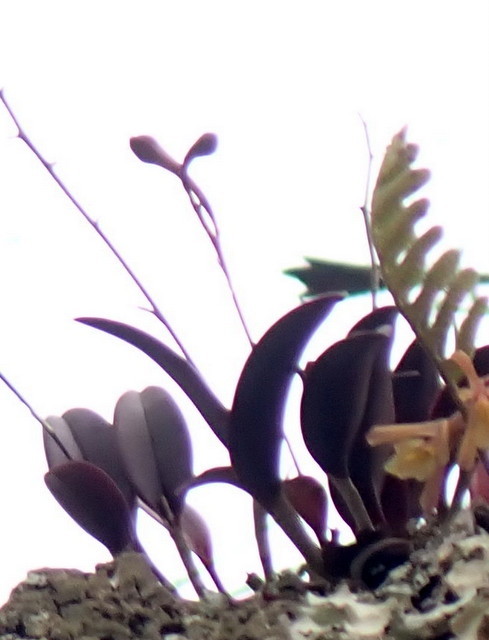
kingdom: Plantae
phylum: Tracheophyta
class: Liliopsida
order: Asparagales
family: Orchidaceae
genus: Epidendrum
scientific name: Epidendrum conopseum
